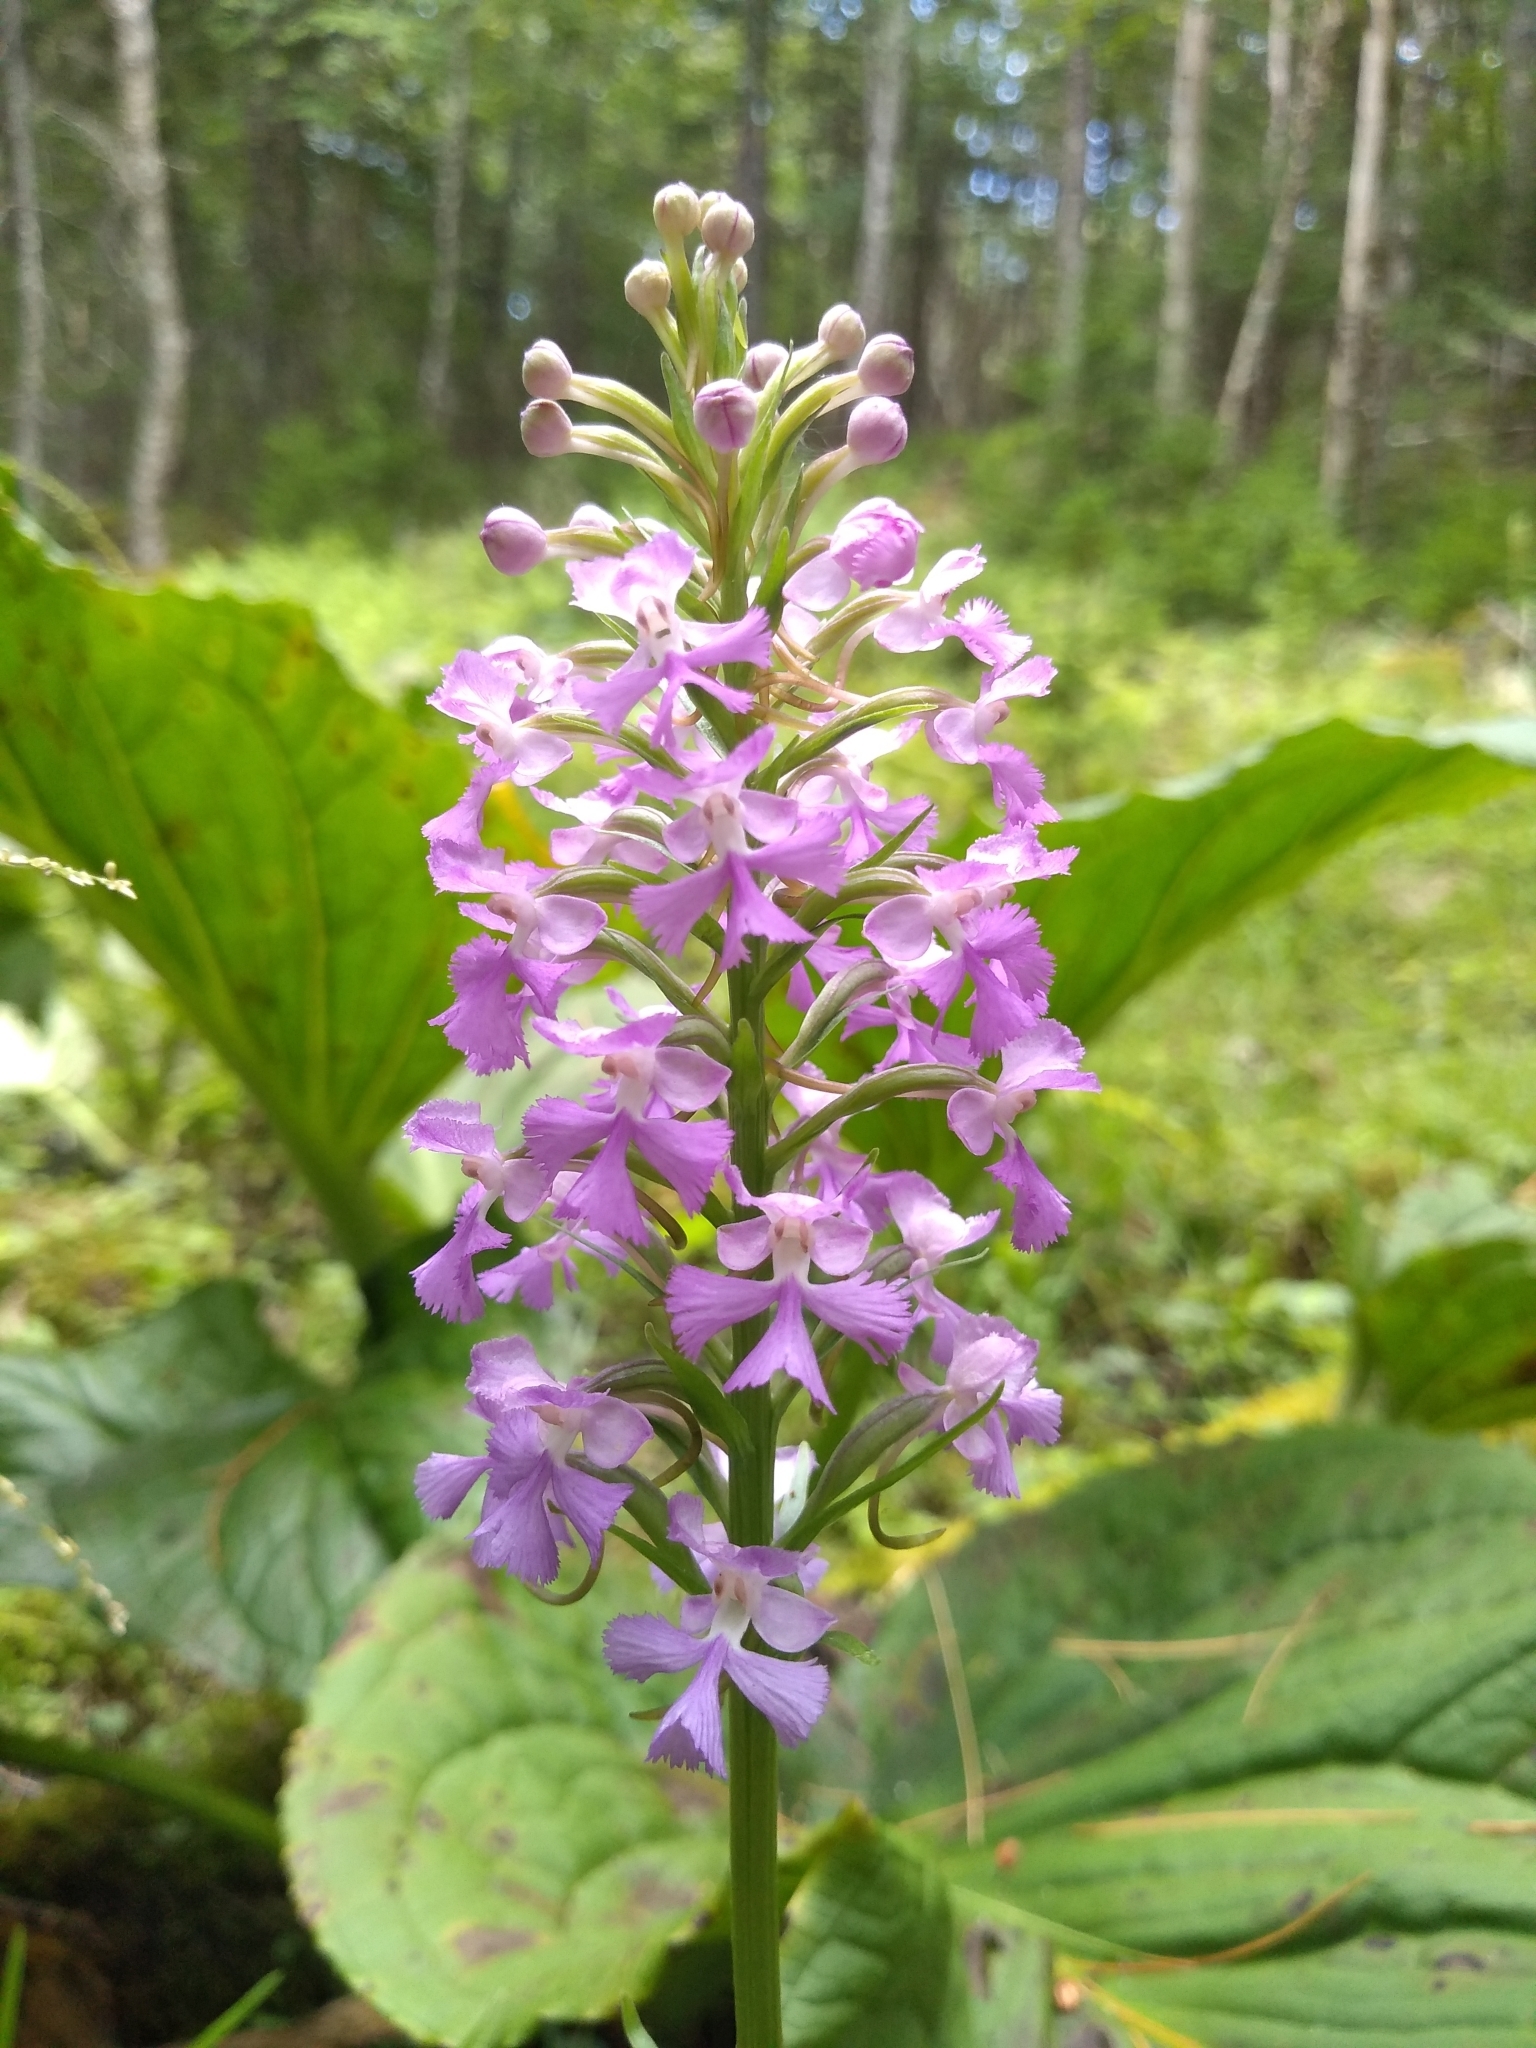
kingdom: Plantae
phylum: Tracheophyta
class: Liliopsida
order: Asparagales
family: Orchidaceae
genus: Platanthera
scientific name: Platanthera psycodes
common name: Lesser purple fringed orchid
